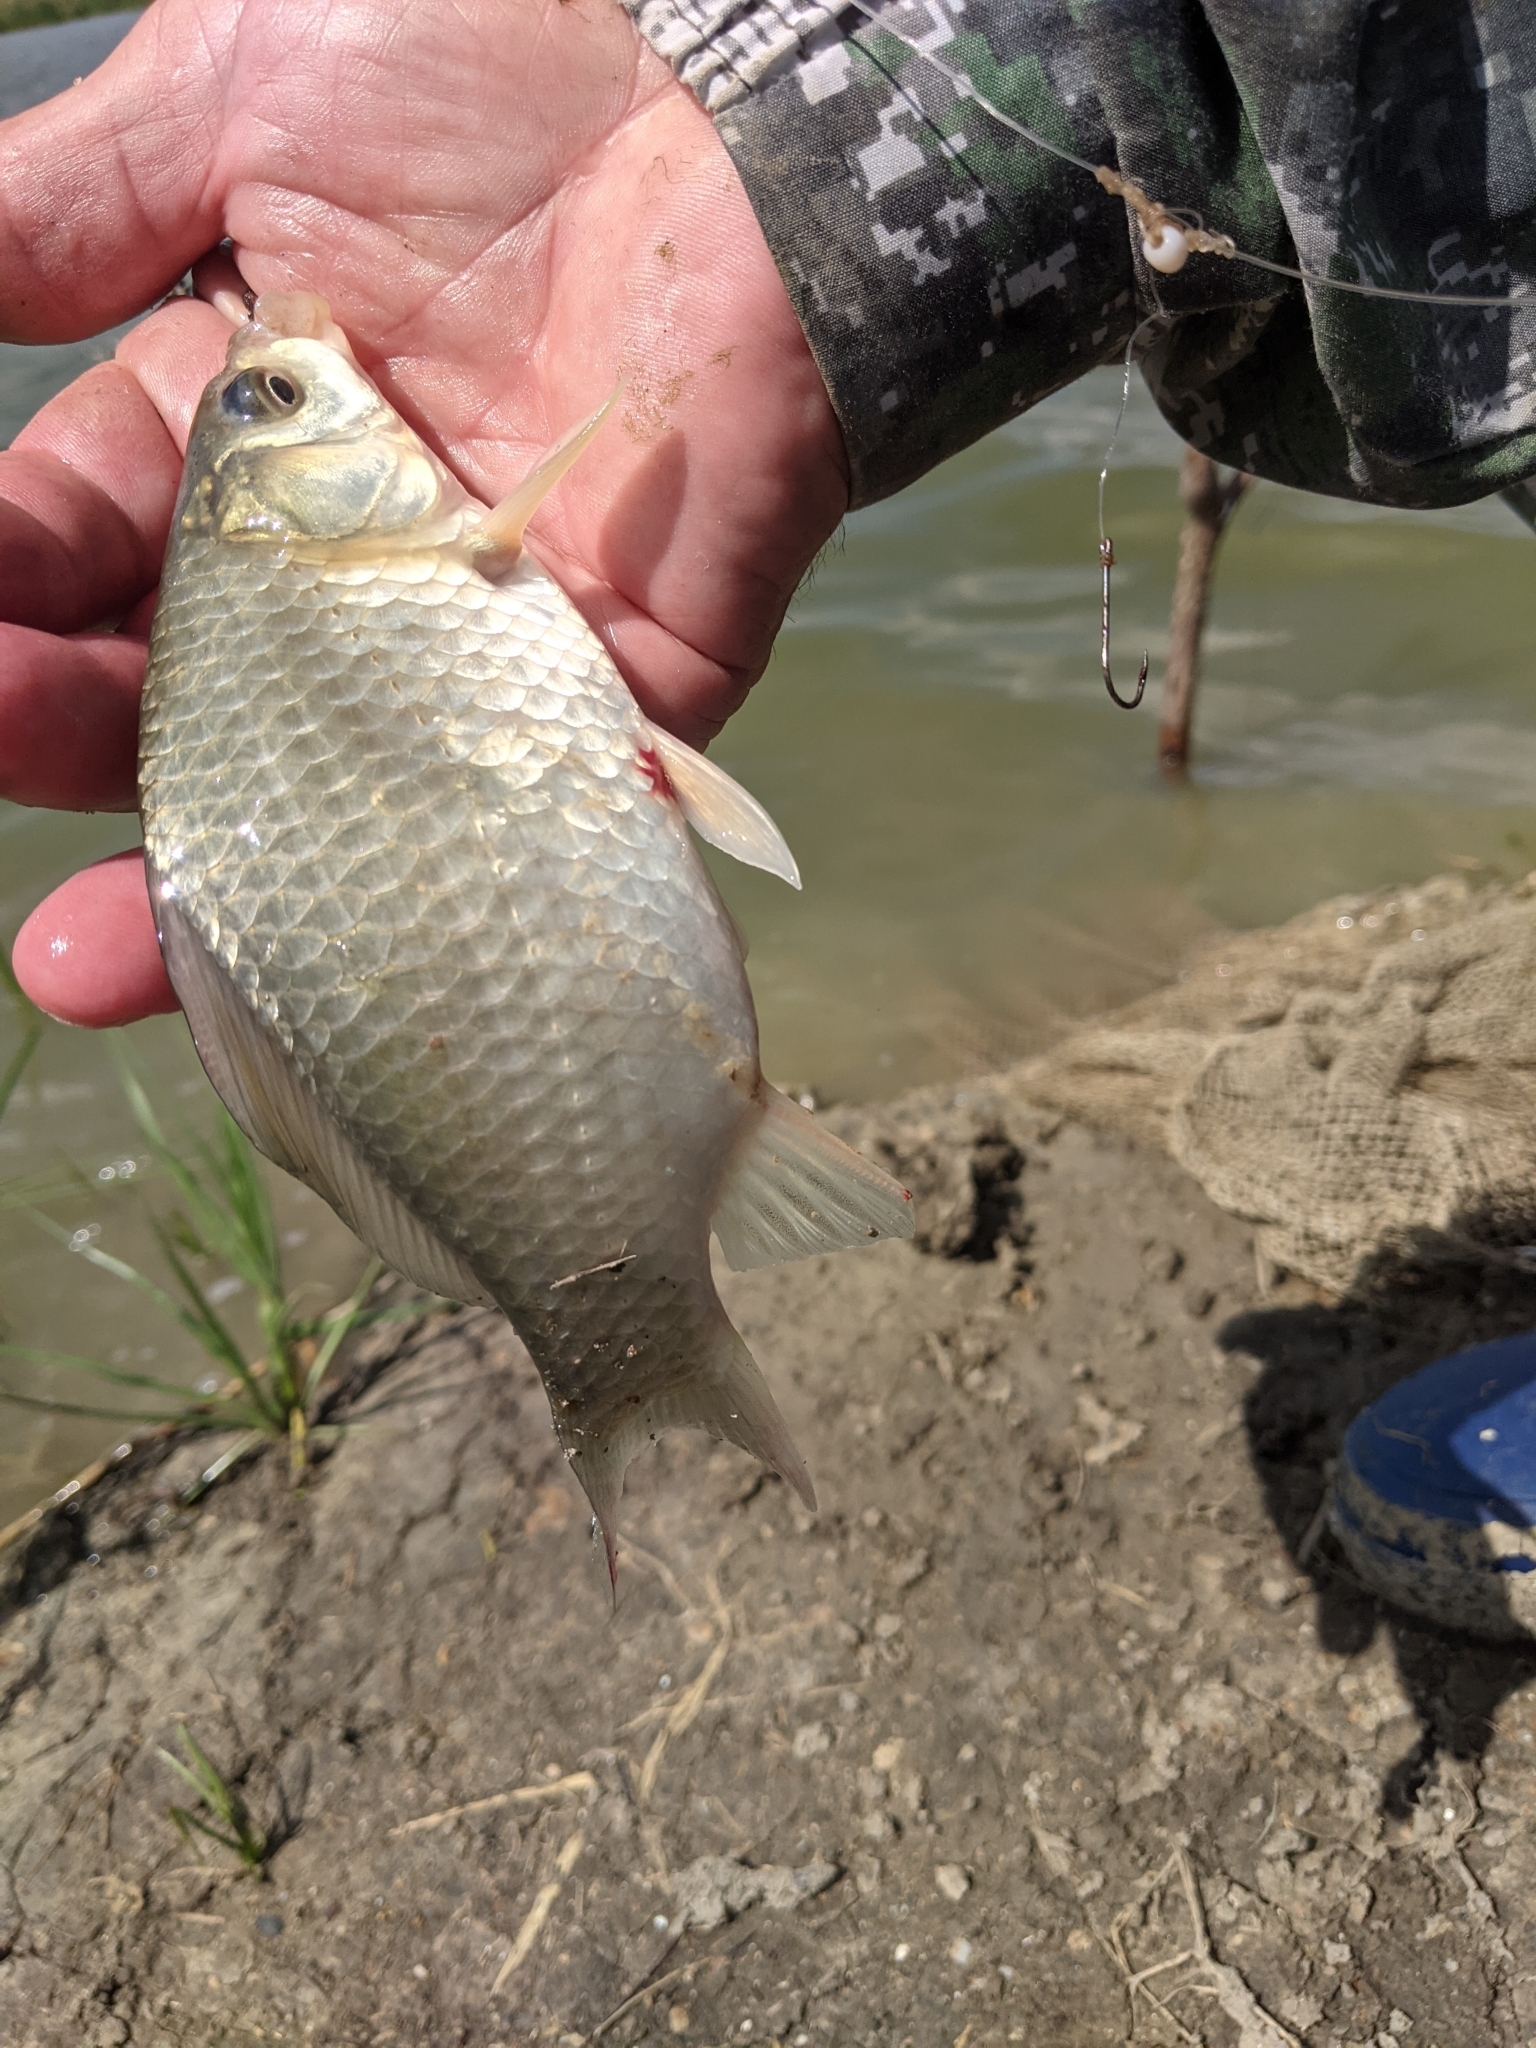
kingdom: Animalia
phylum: Chordata
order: Cypriniformes
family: Cyprinidae
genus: Carassius
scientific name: Carassius gibelio
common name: Prussian carp
